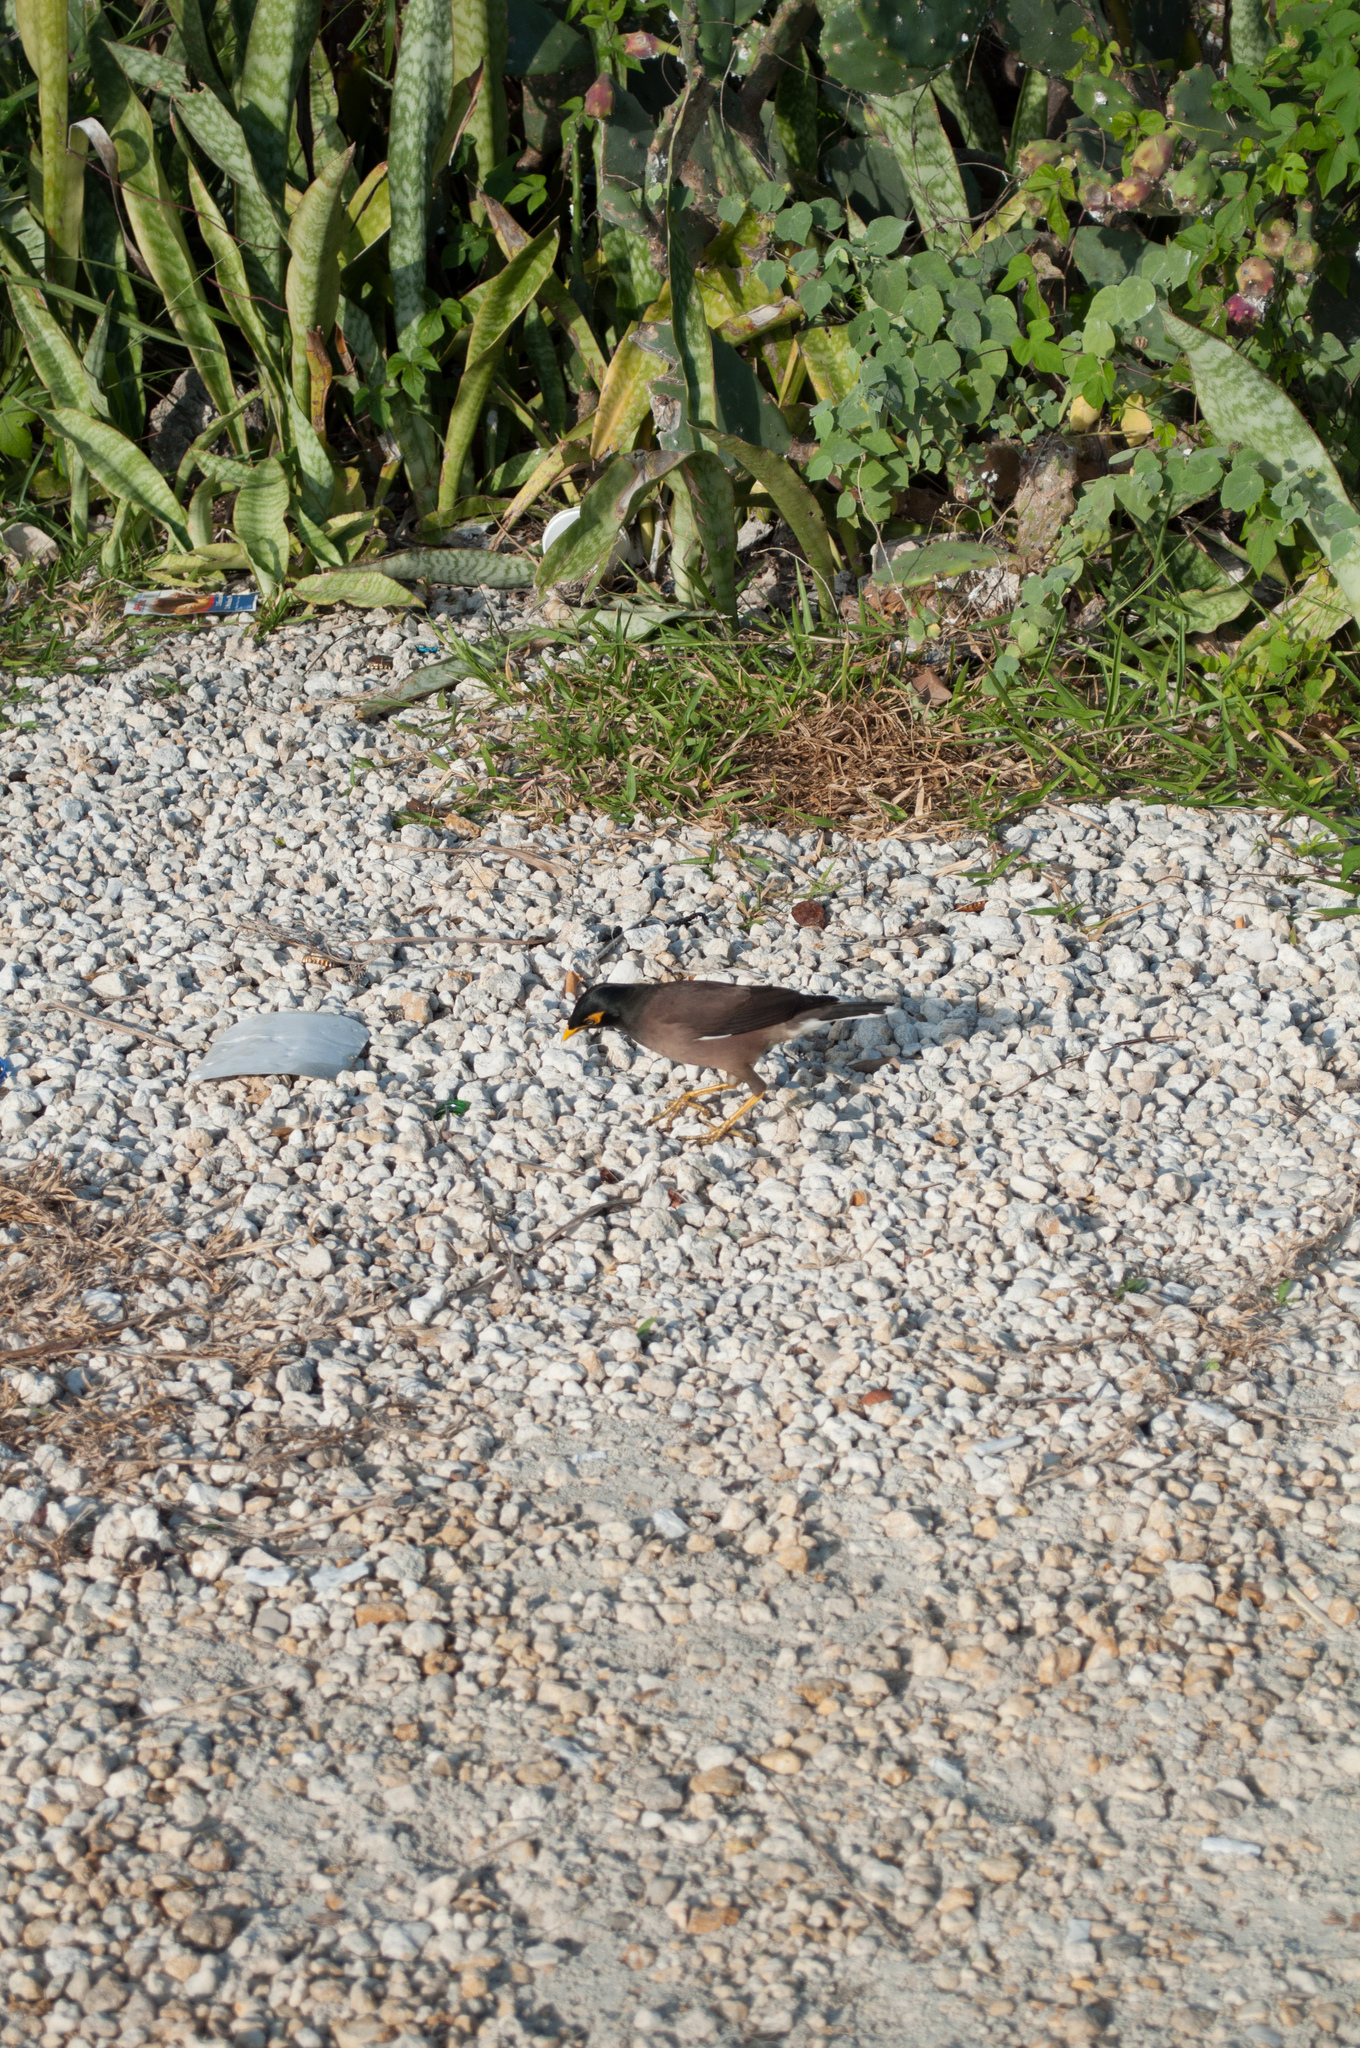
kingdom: Animalia
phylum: Chordata
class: Aves
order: Passeriformes
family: Sturnidae
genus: Acridotheres
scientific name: Acridotheres tristis
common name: Common myna
